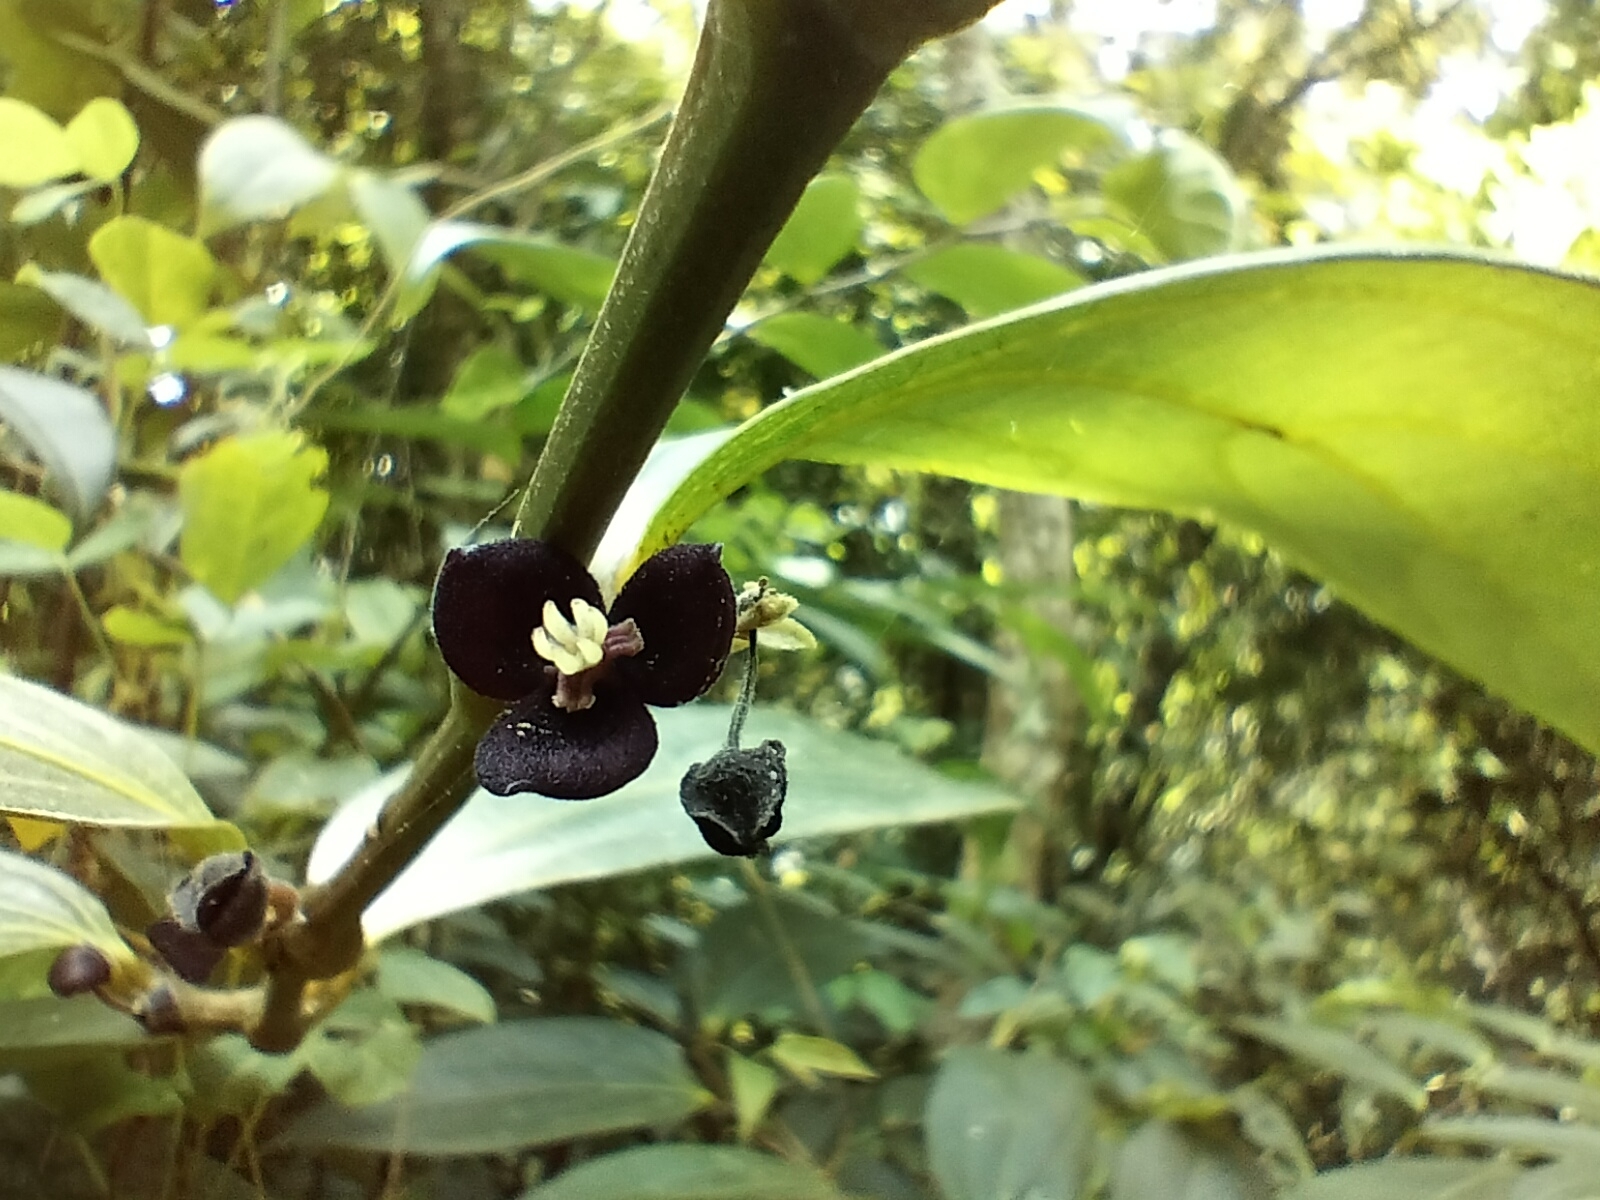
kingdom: Plantae
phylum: Tracheophyta
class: Magnoliopsida
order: Piperales
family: Aristolochiaceae
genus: Thottea
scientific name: Thottea siliquosa
